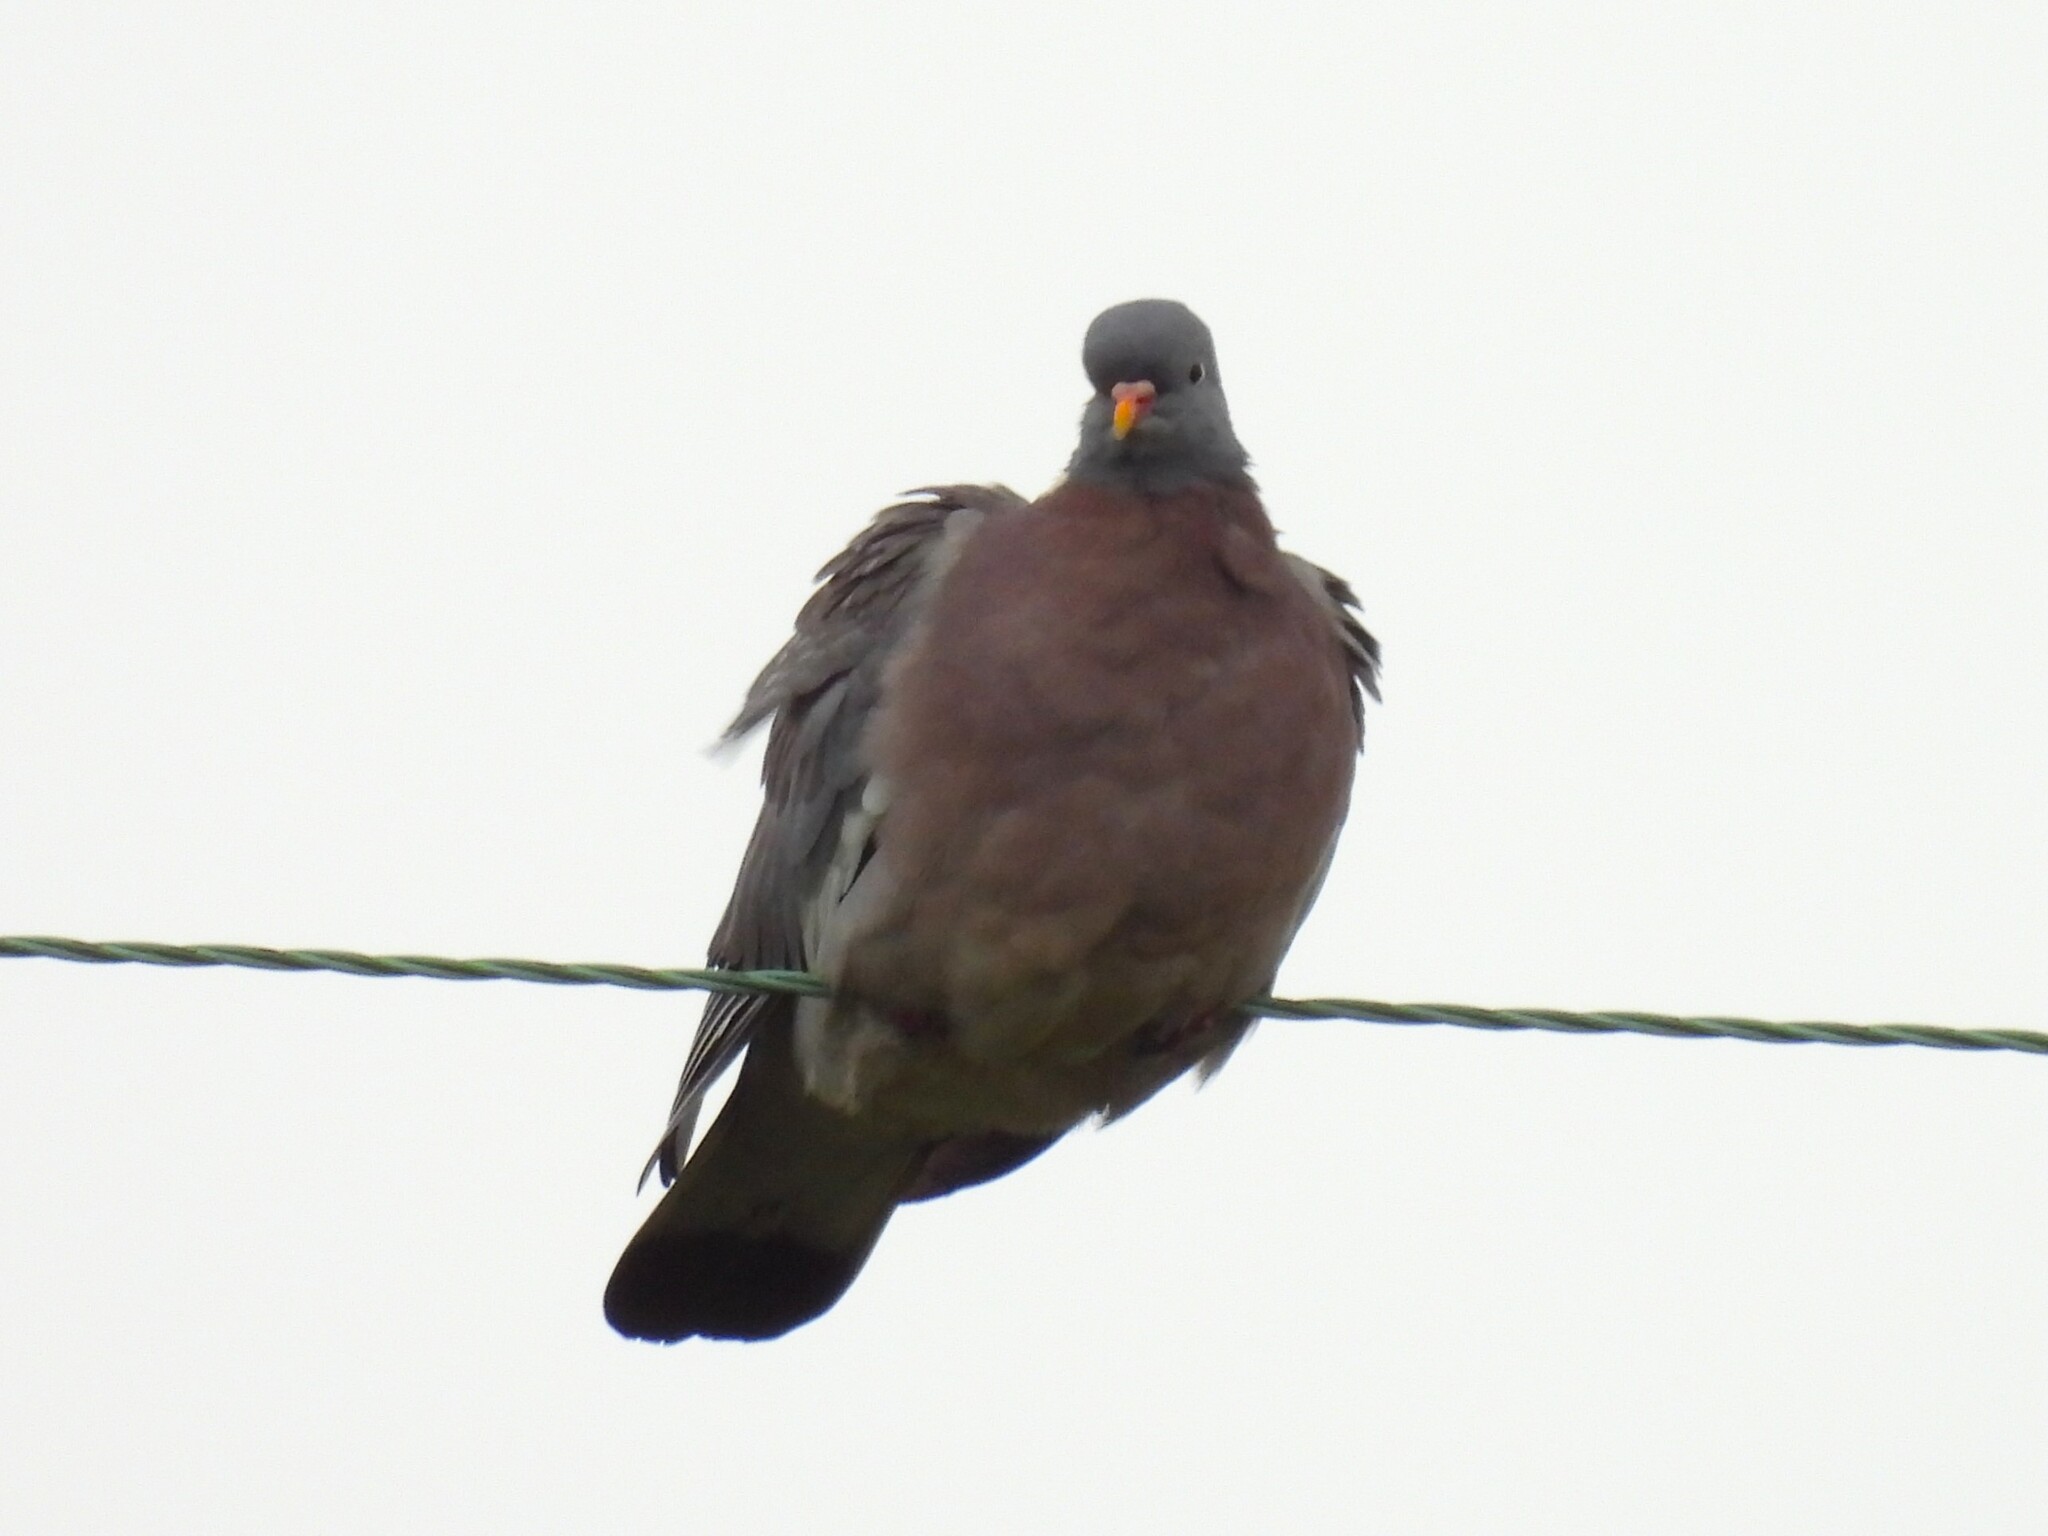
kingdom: Animalia
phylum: Chordata
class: Aves
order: Columbiformes
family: Columbidae
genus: Columba
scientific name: Columba palumbus
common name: Common wood pigeon
